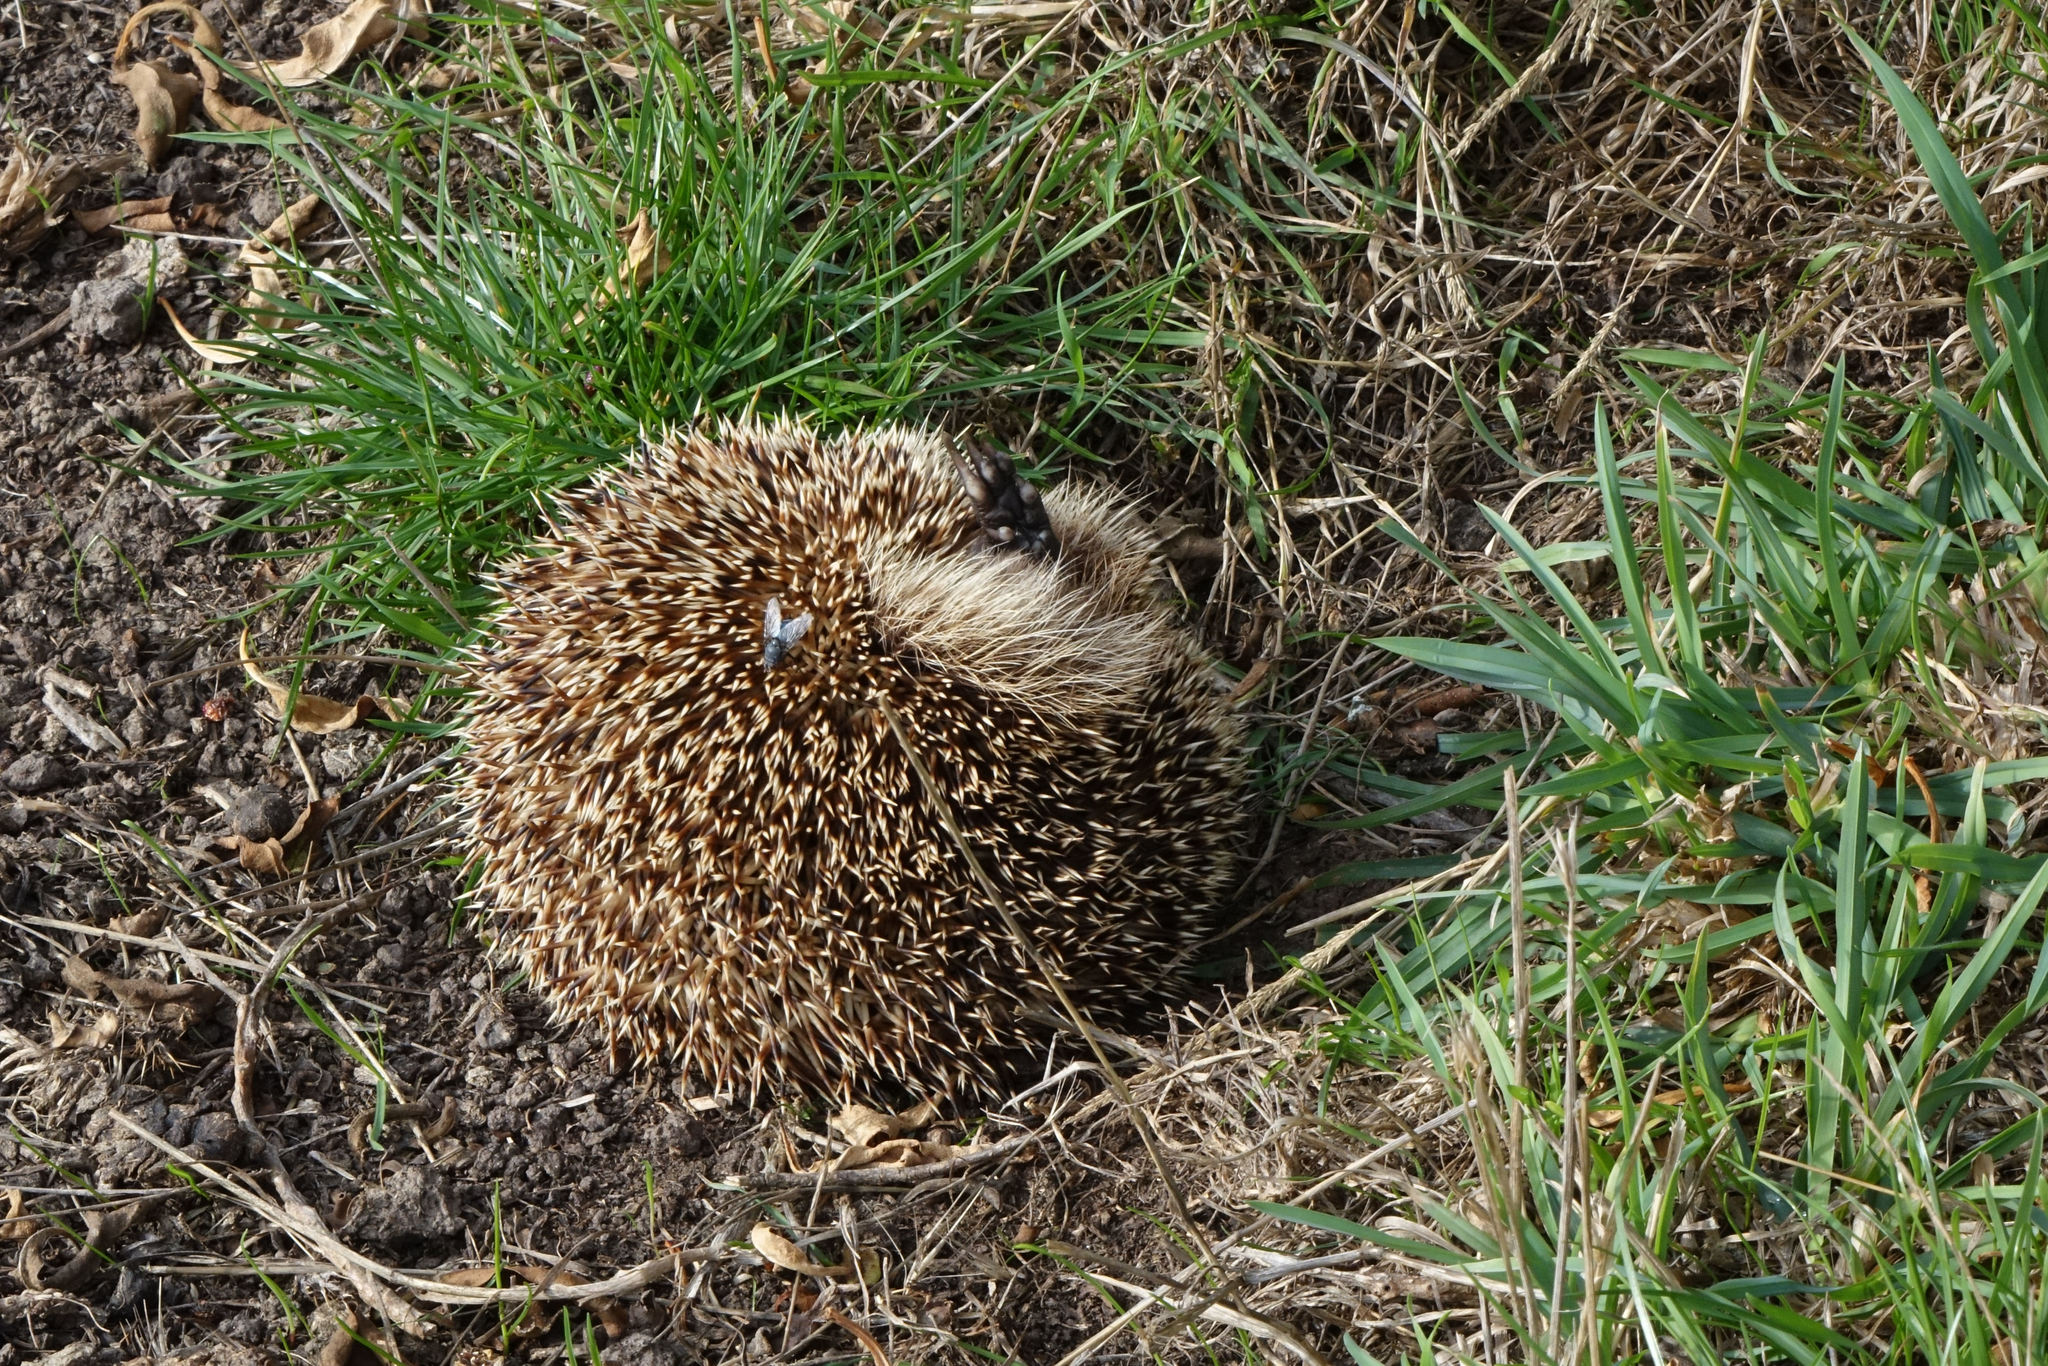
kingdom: Animalia
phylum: Chordata
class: Mammalia
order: Erinaceomorpha
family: Erinaceidae
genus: Erinaceus
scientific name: Erinaceus europaeus
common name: West european hedgehog
